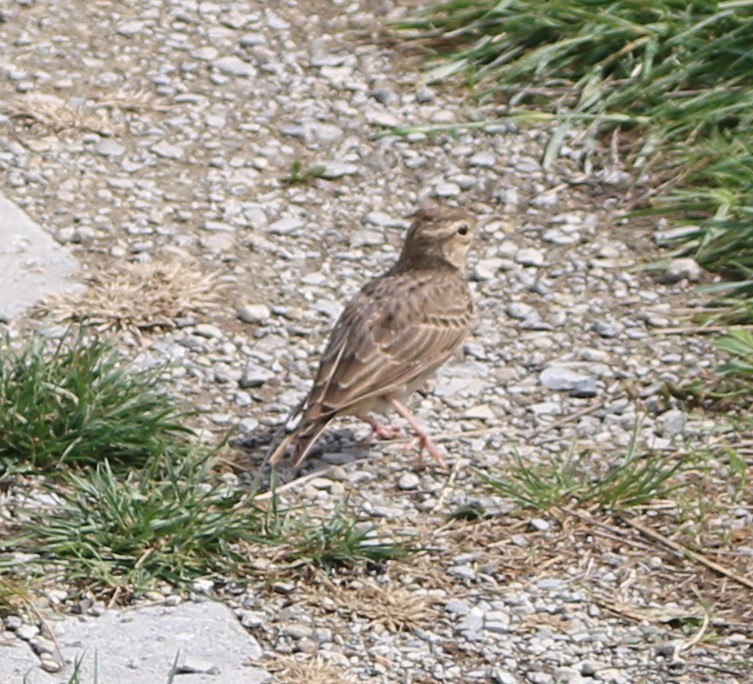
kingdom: Animalia
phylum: Chordata
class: Aves
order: Passeriformes
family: Alaudidae
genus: Galerida
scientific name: Galerida cristata
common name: Crested lark
